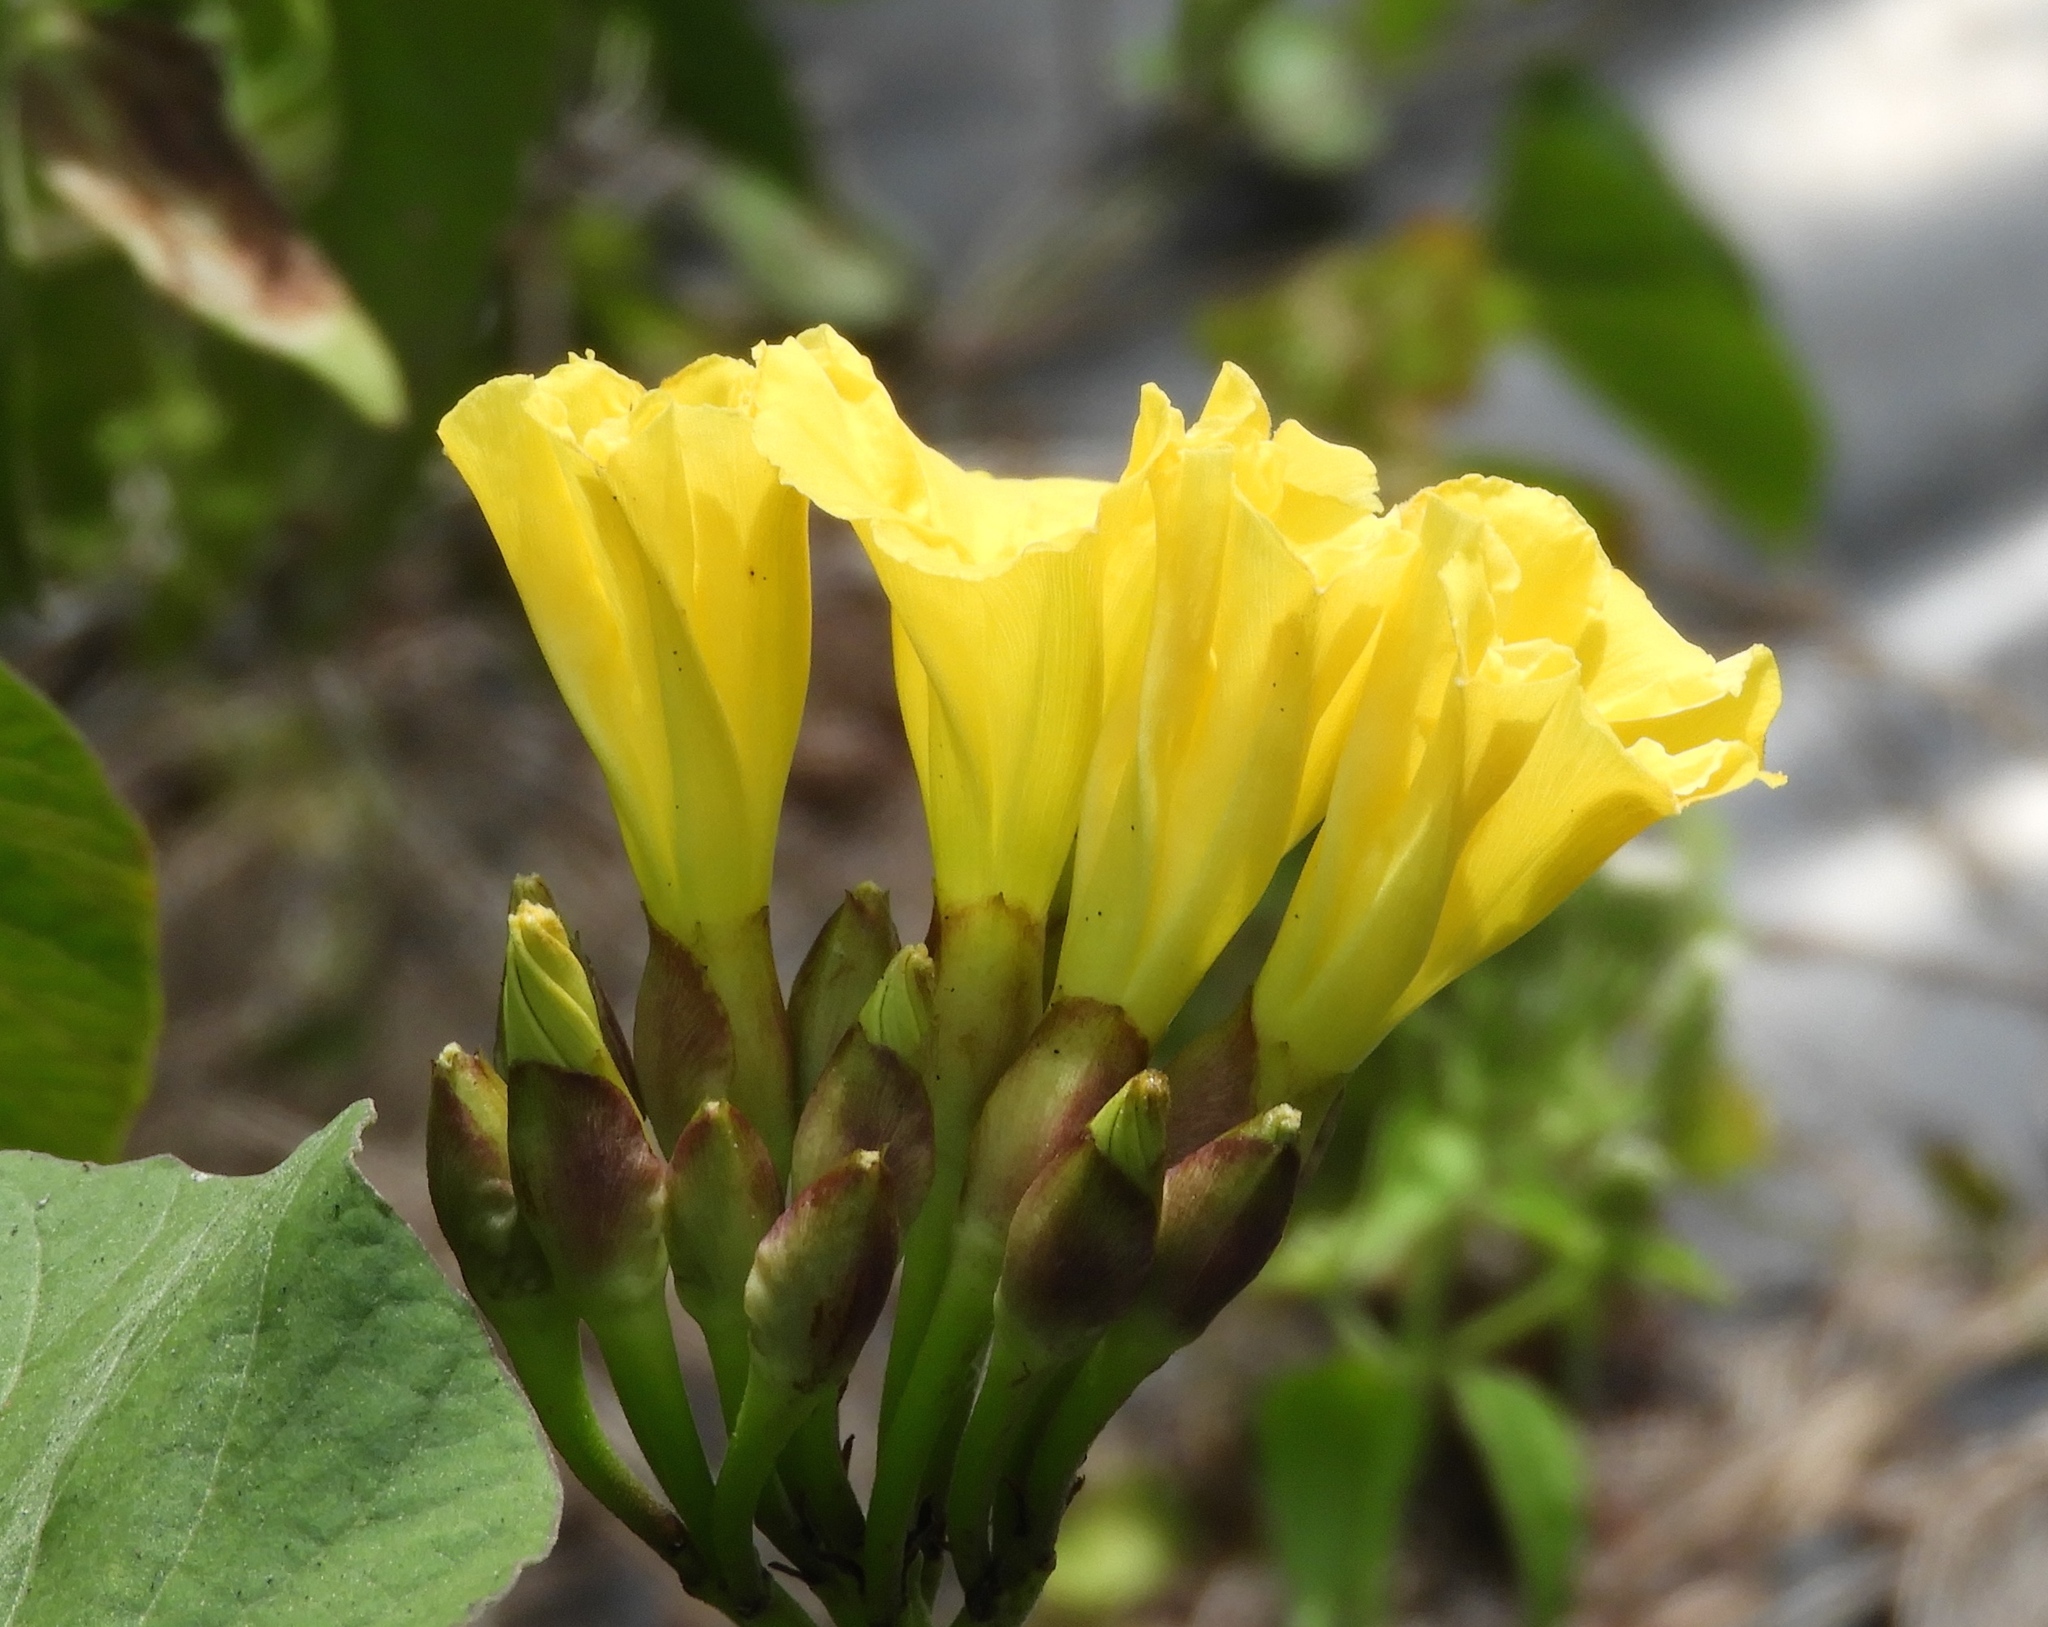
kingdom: Plantae
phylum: Tracheophyta
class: Magnoliopsida
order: Solanales
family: Convolvulaceae
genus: Camonea
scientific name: Camonea umbellata
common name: Hogvine
